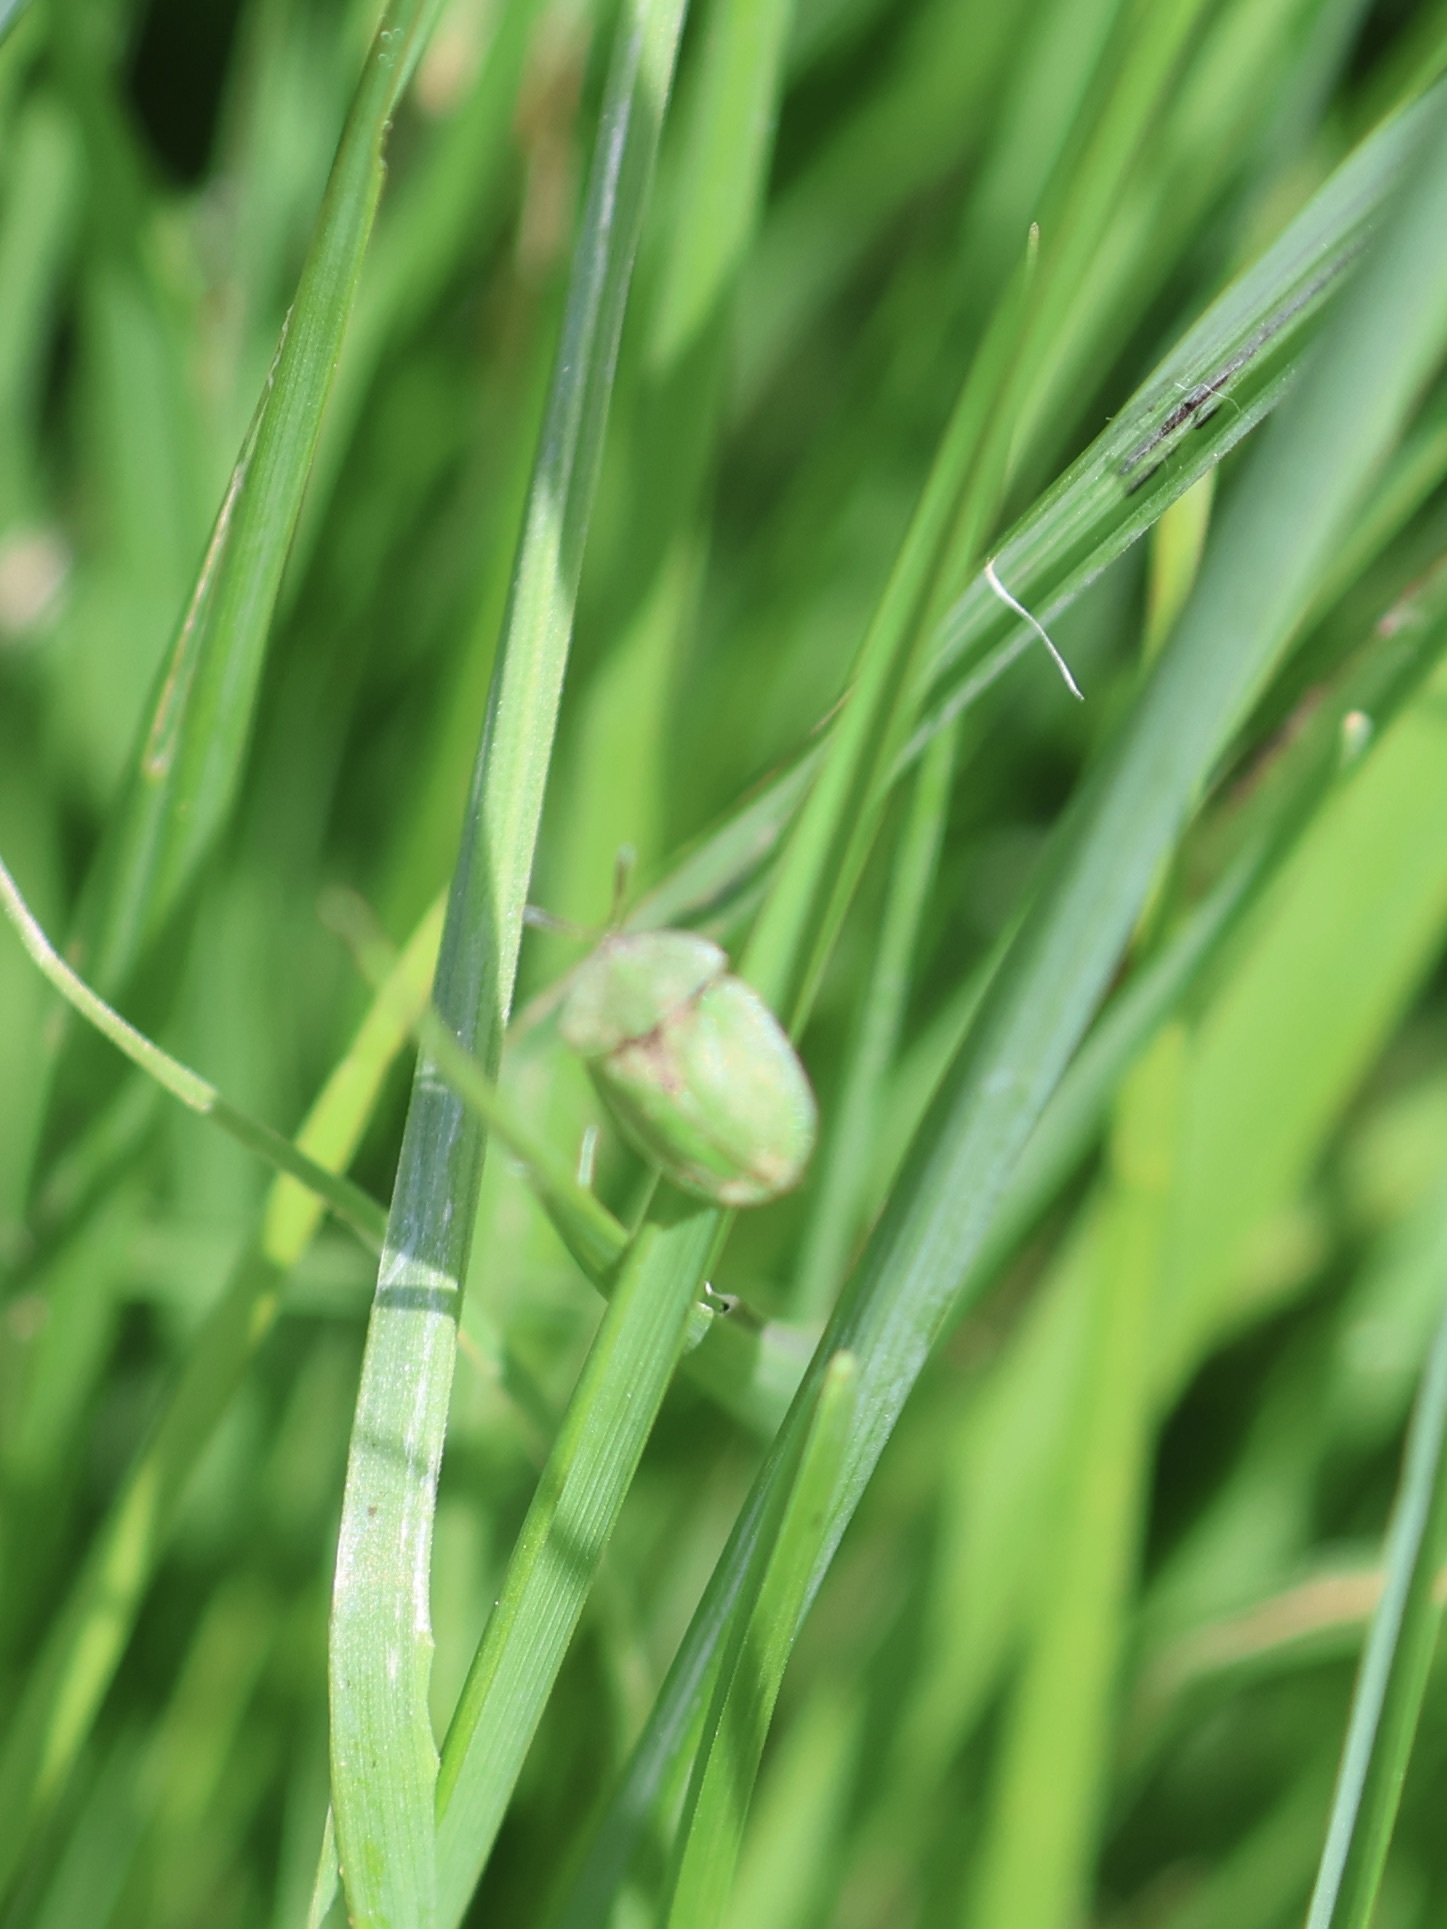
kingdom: Animalia
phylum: Arthropoda
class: Insecta
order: Coleoptera
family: Chrysomelidae
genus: Cassida
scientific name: Cassida rubiginosa
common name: Thistle tortoise beetle
